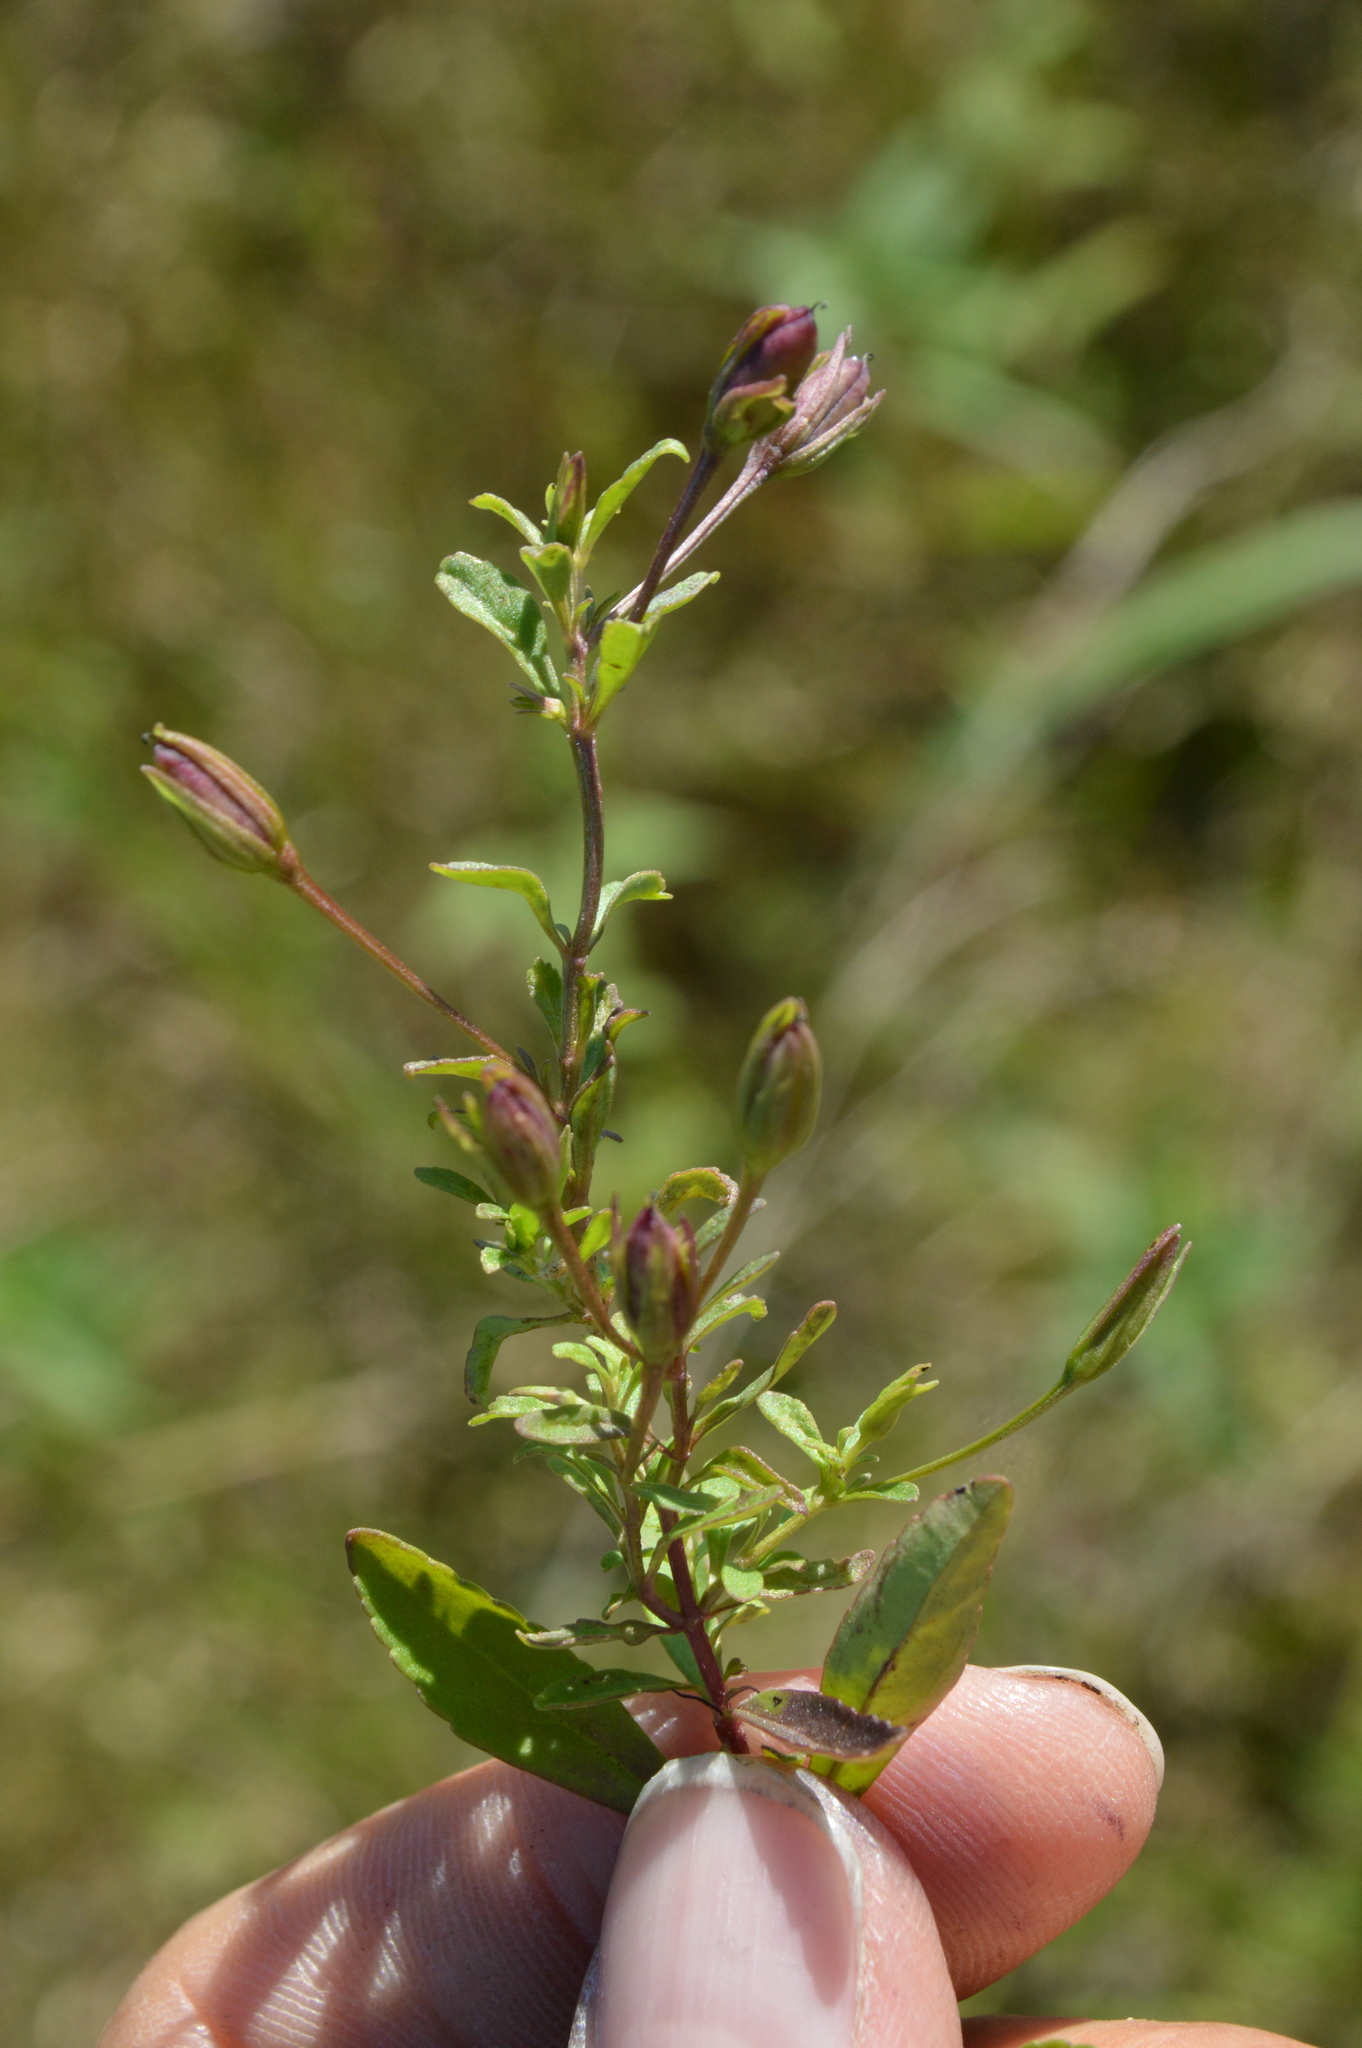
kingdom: Plantae
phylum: Tracheophyta
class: Magnoliopsida
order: Lamiales
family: Plantaginaceae
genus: Mecardonia
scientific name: Mecardonia acuminata
